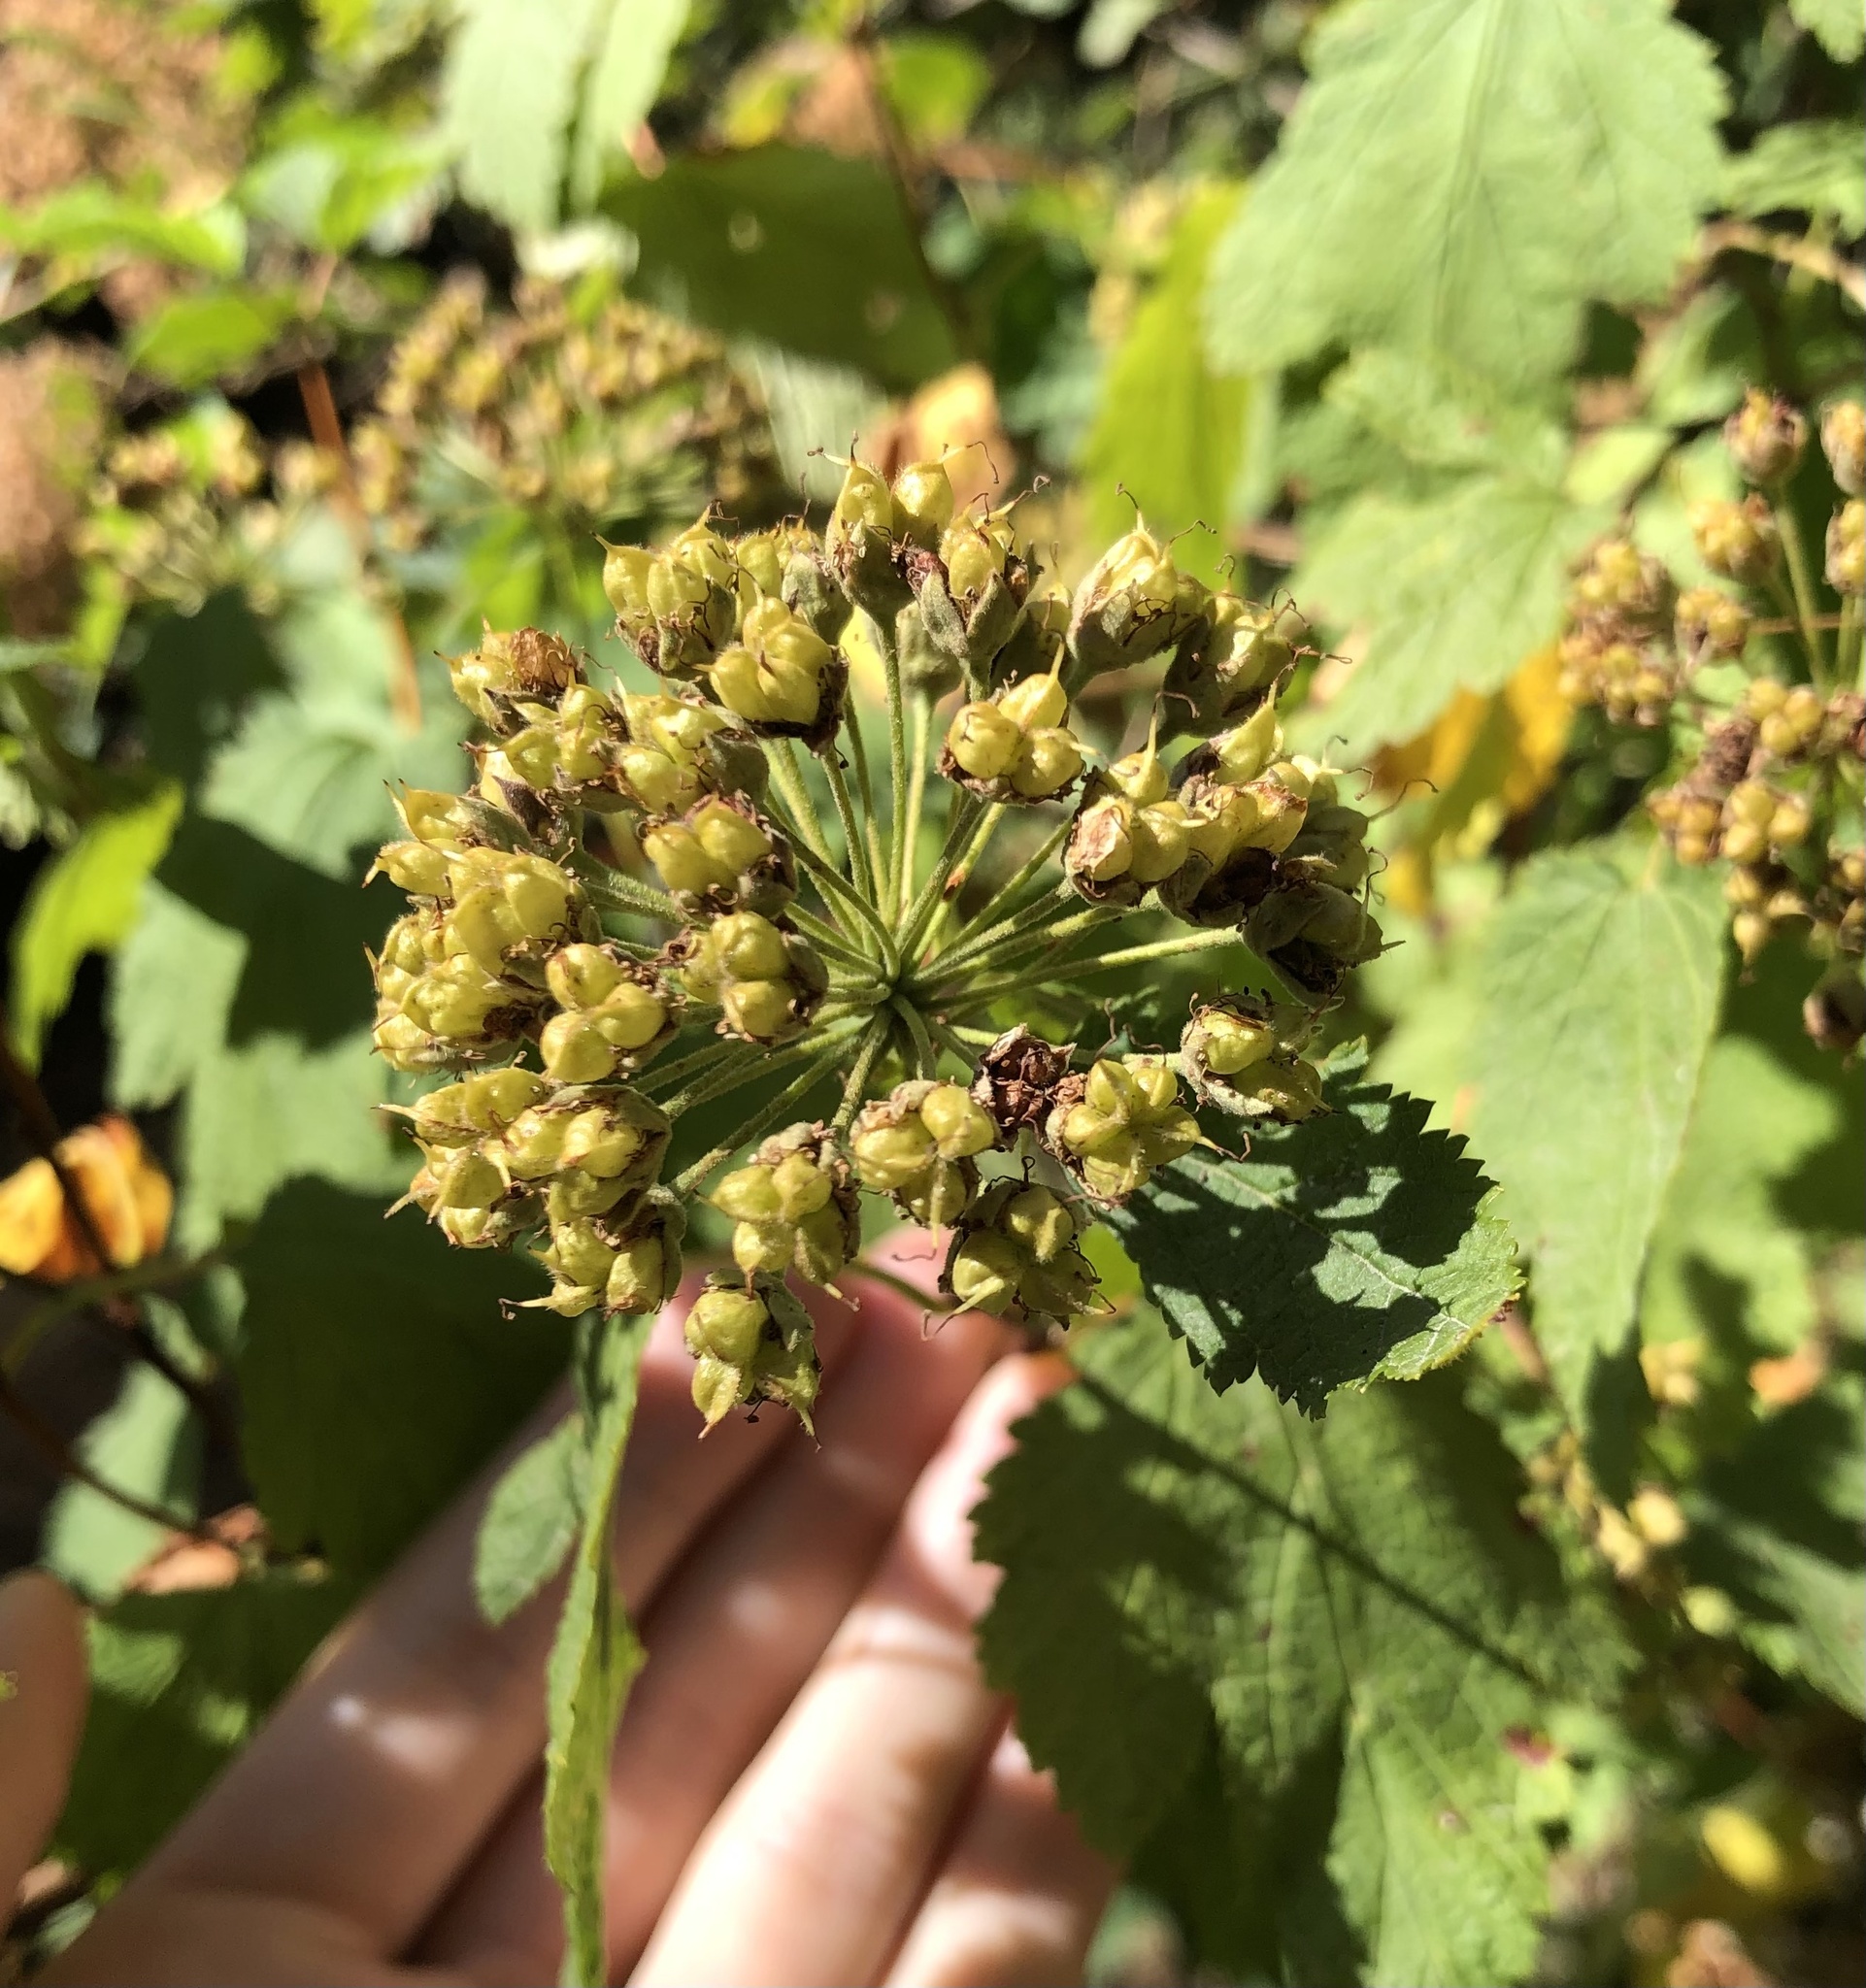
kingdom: Plantae
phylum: Tracheophyta
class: Magnoliopsida
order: Rosales
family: Rosaceae
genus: Physocarpus
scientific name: Physocarpus capitatus
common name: Pacific ninebark
